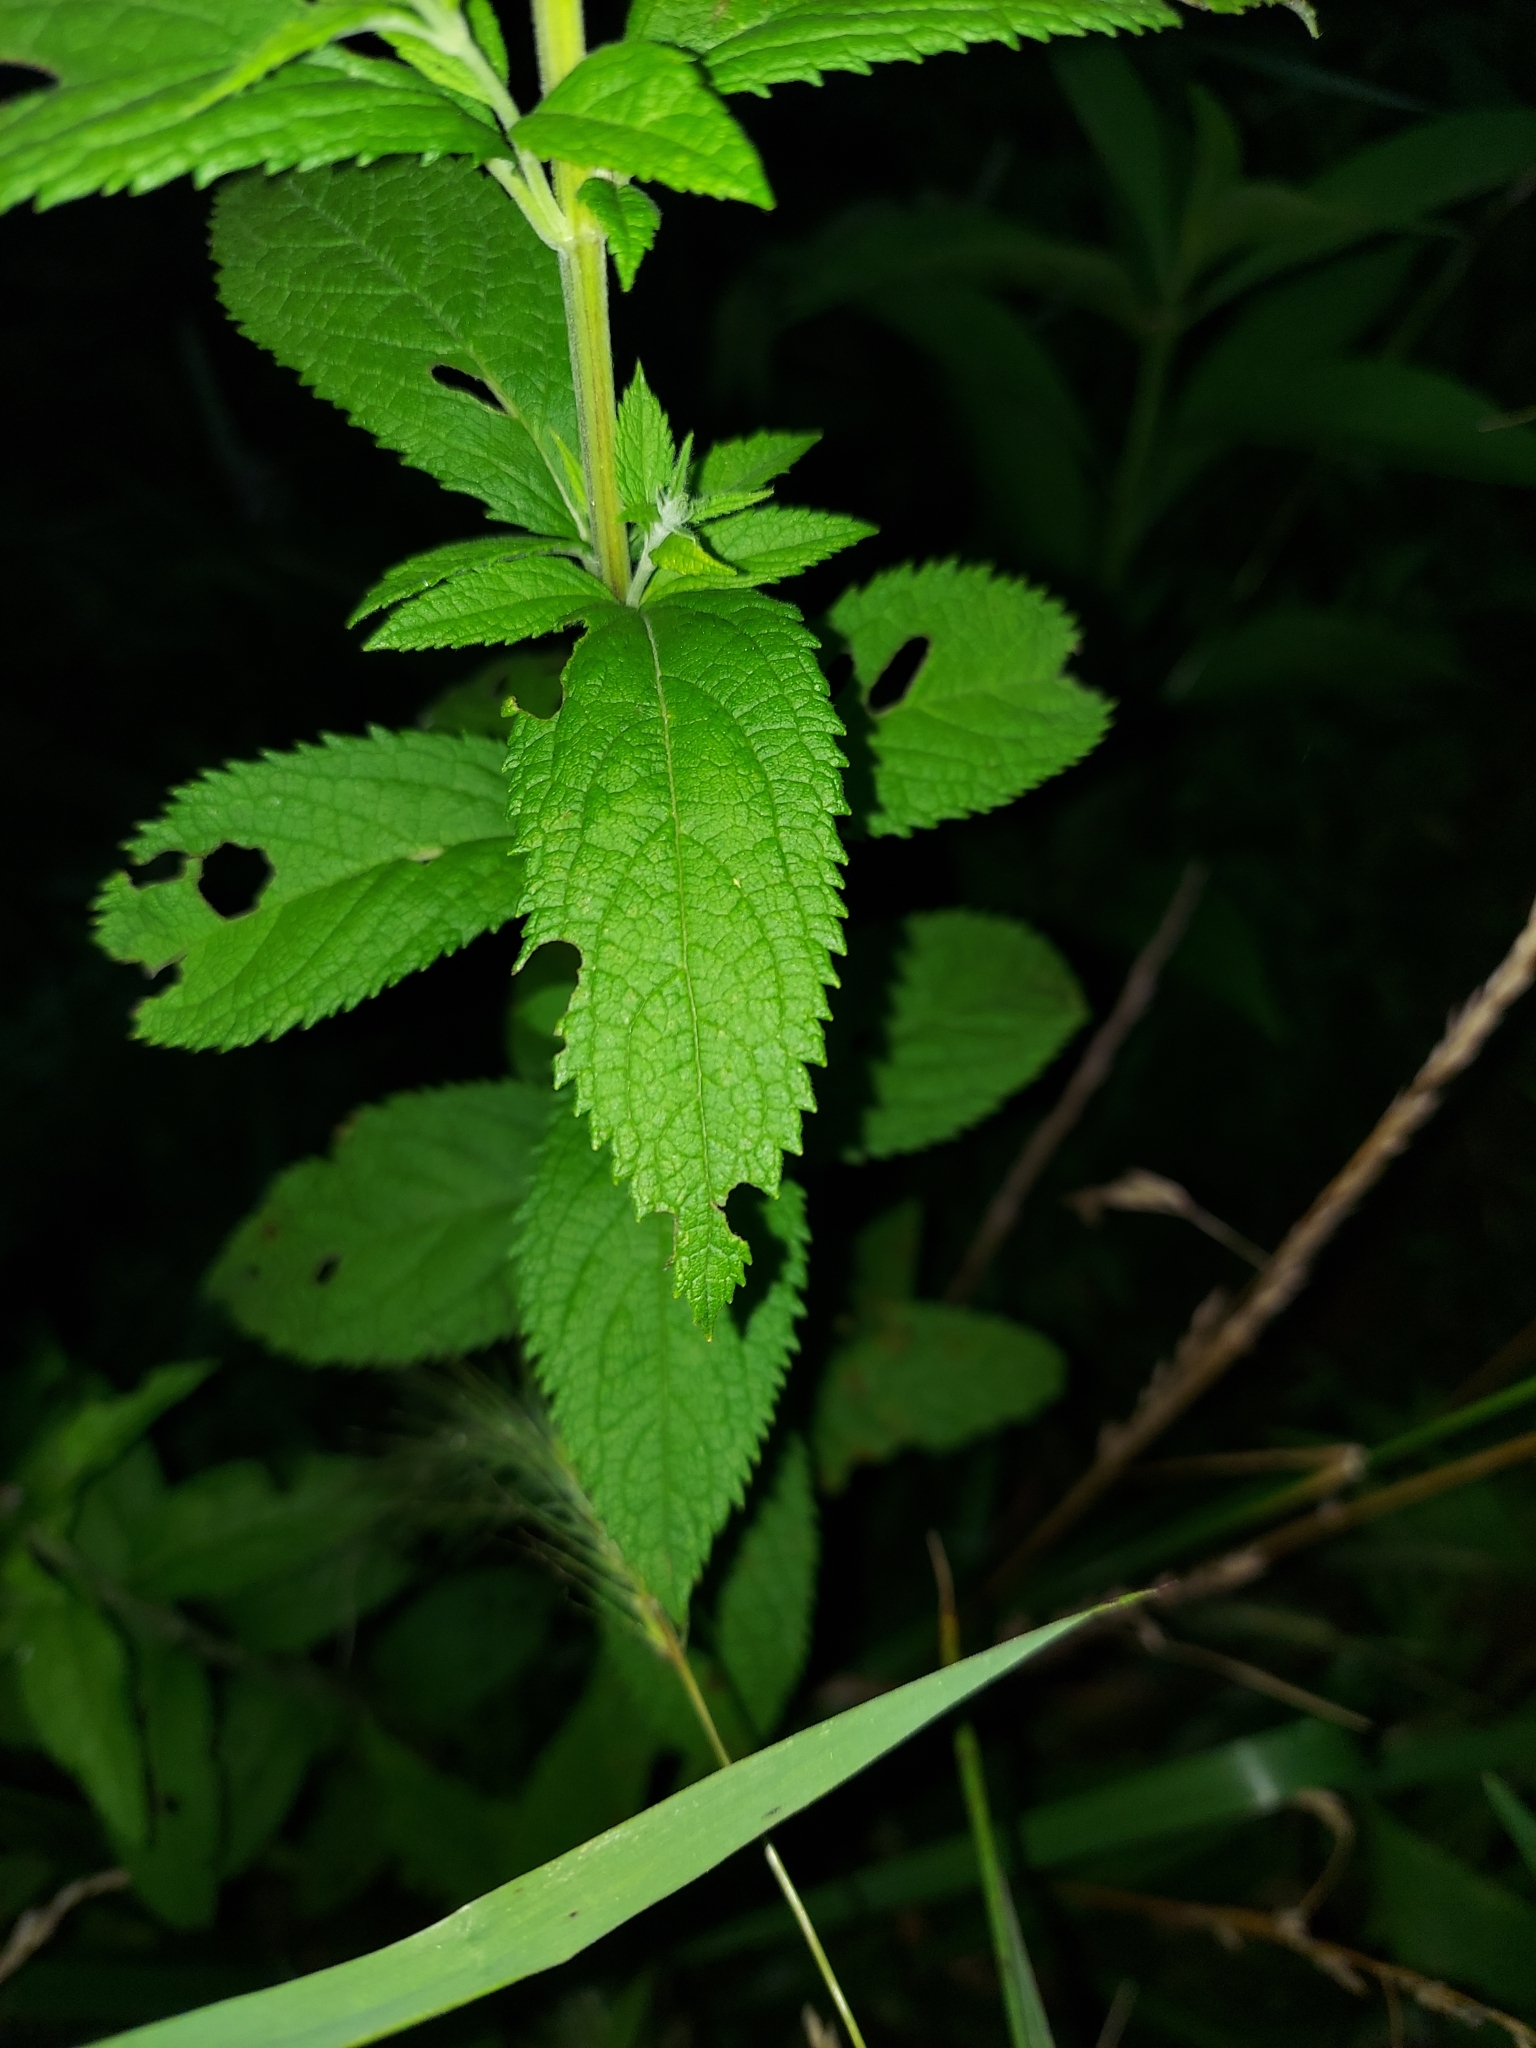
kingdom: Plantae
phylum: Tracheophyta
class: Magnoliopsida
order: Lamiales
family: Lamiaceae
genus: Teucrium
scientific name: Teucrium canadense
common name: American germander
